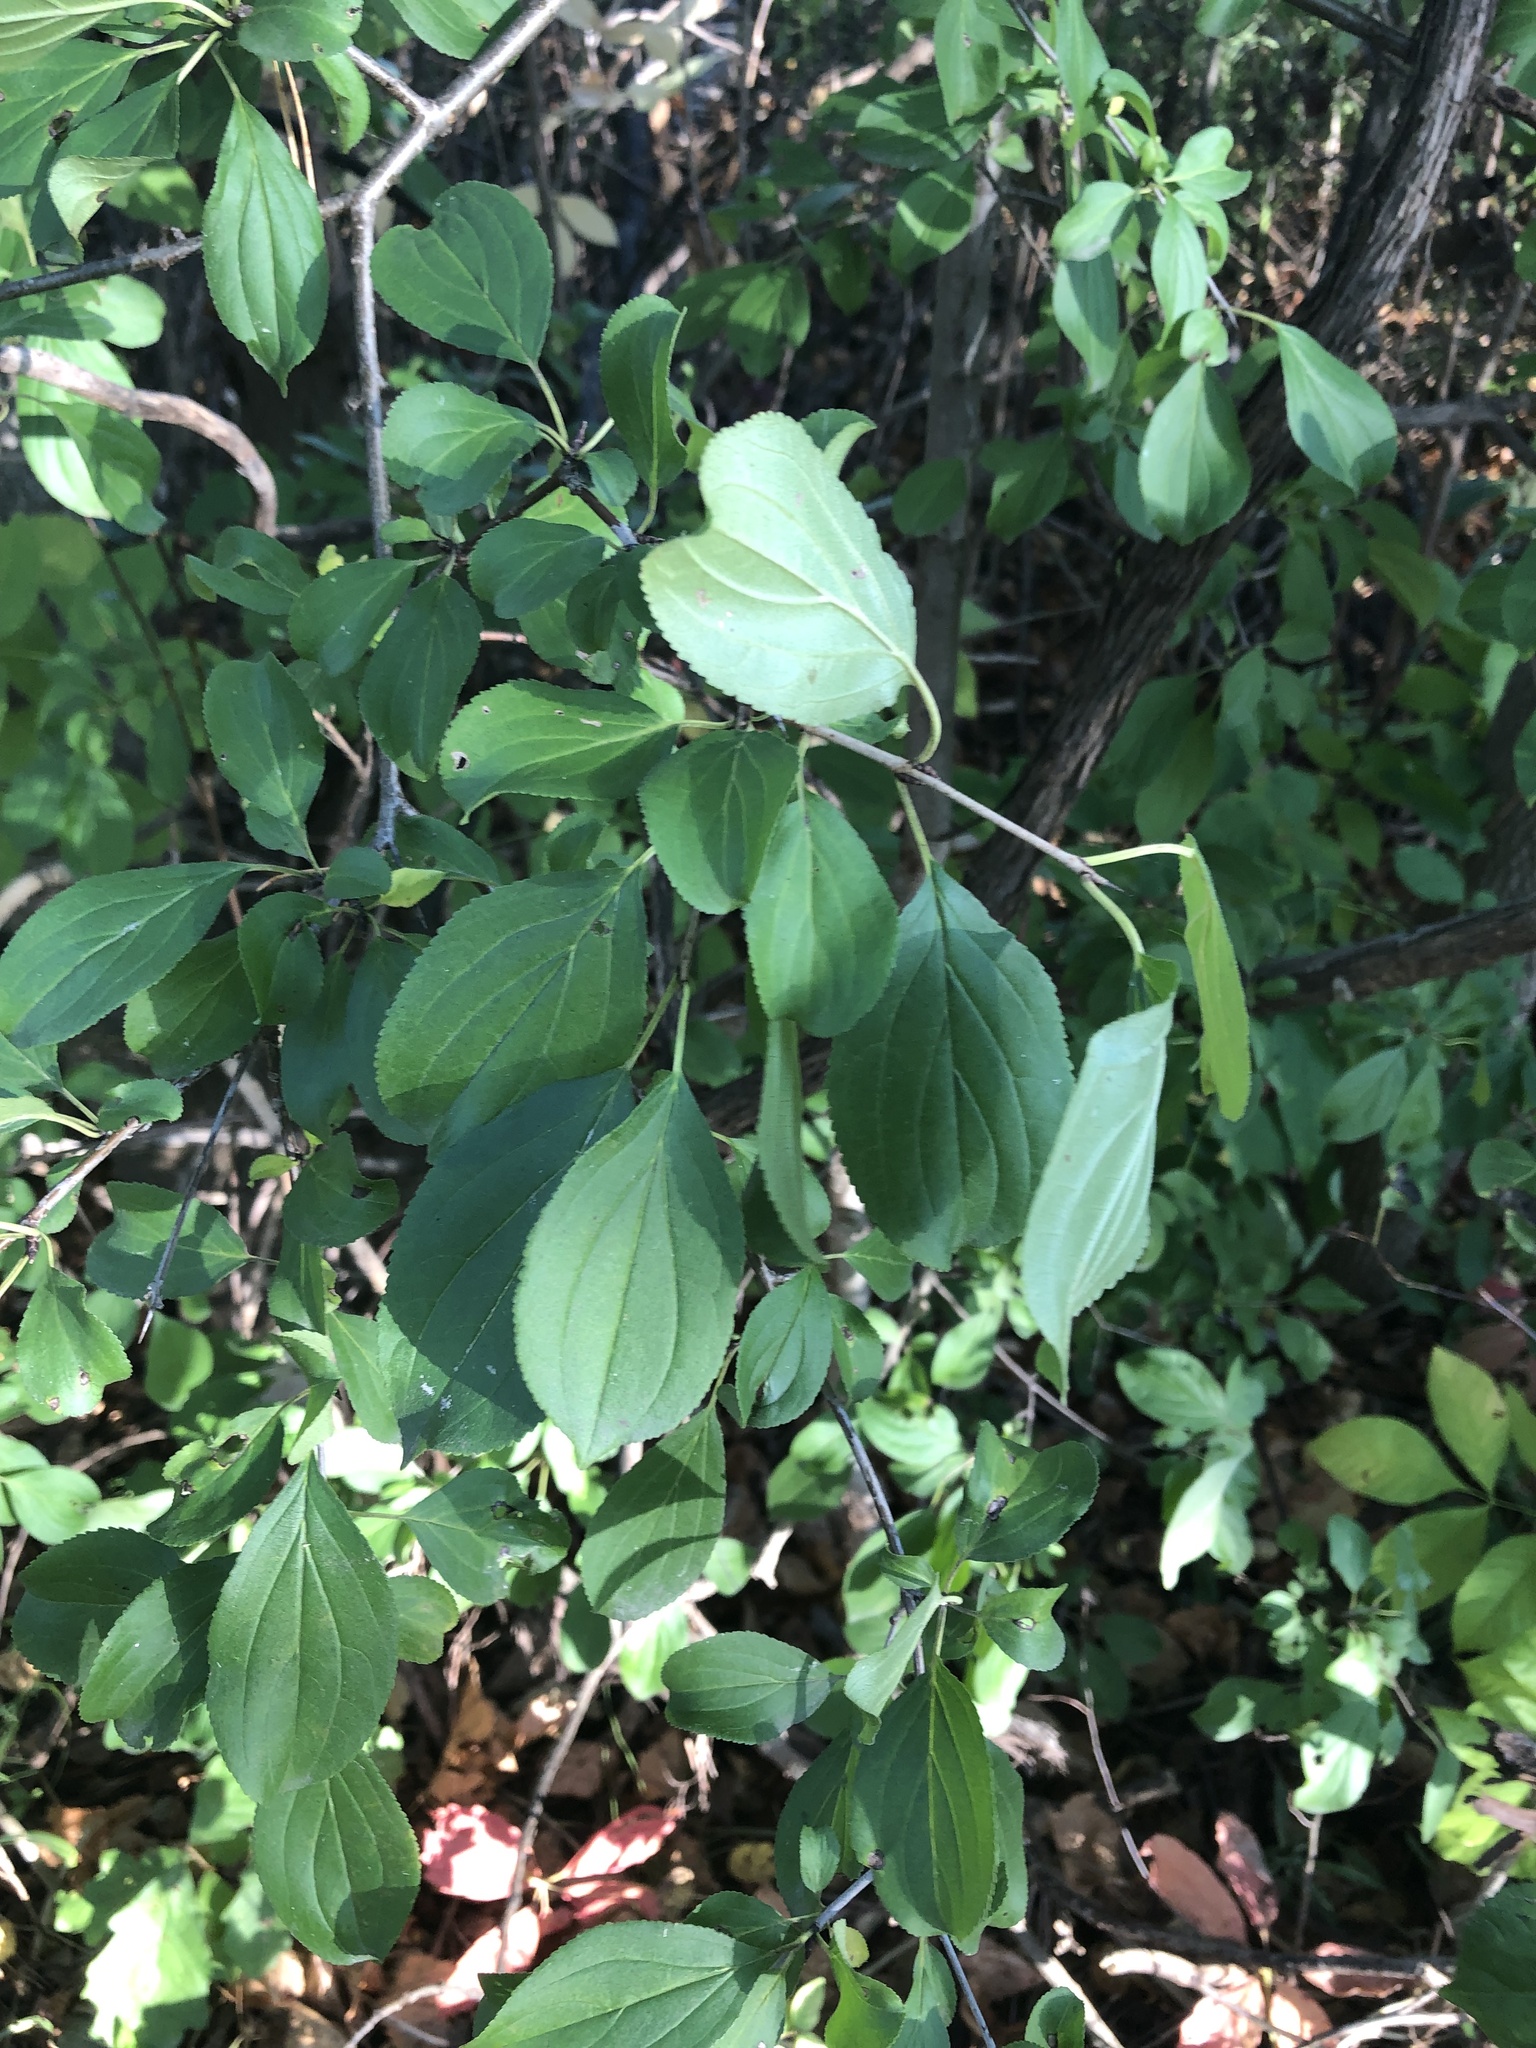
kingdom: Plantae
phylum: Tracheophyta
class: Magnoliopsida
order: Rosales
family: Rhamnaceae
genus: Rhamnus
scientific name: Rhamnus cathartica
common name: Common buckthorn
